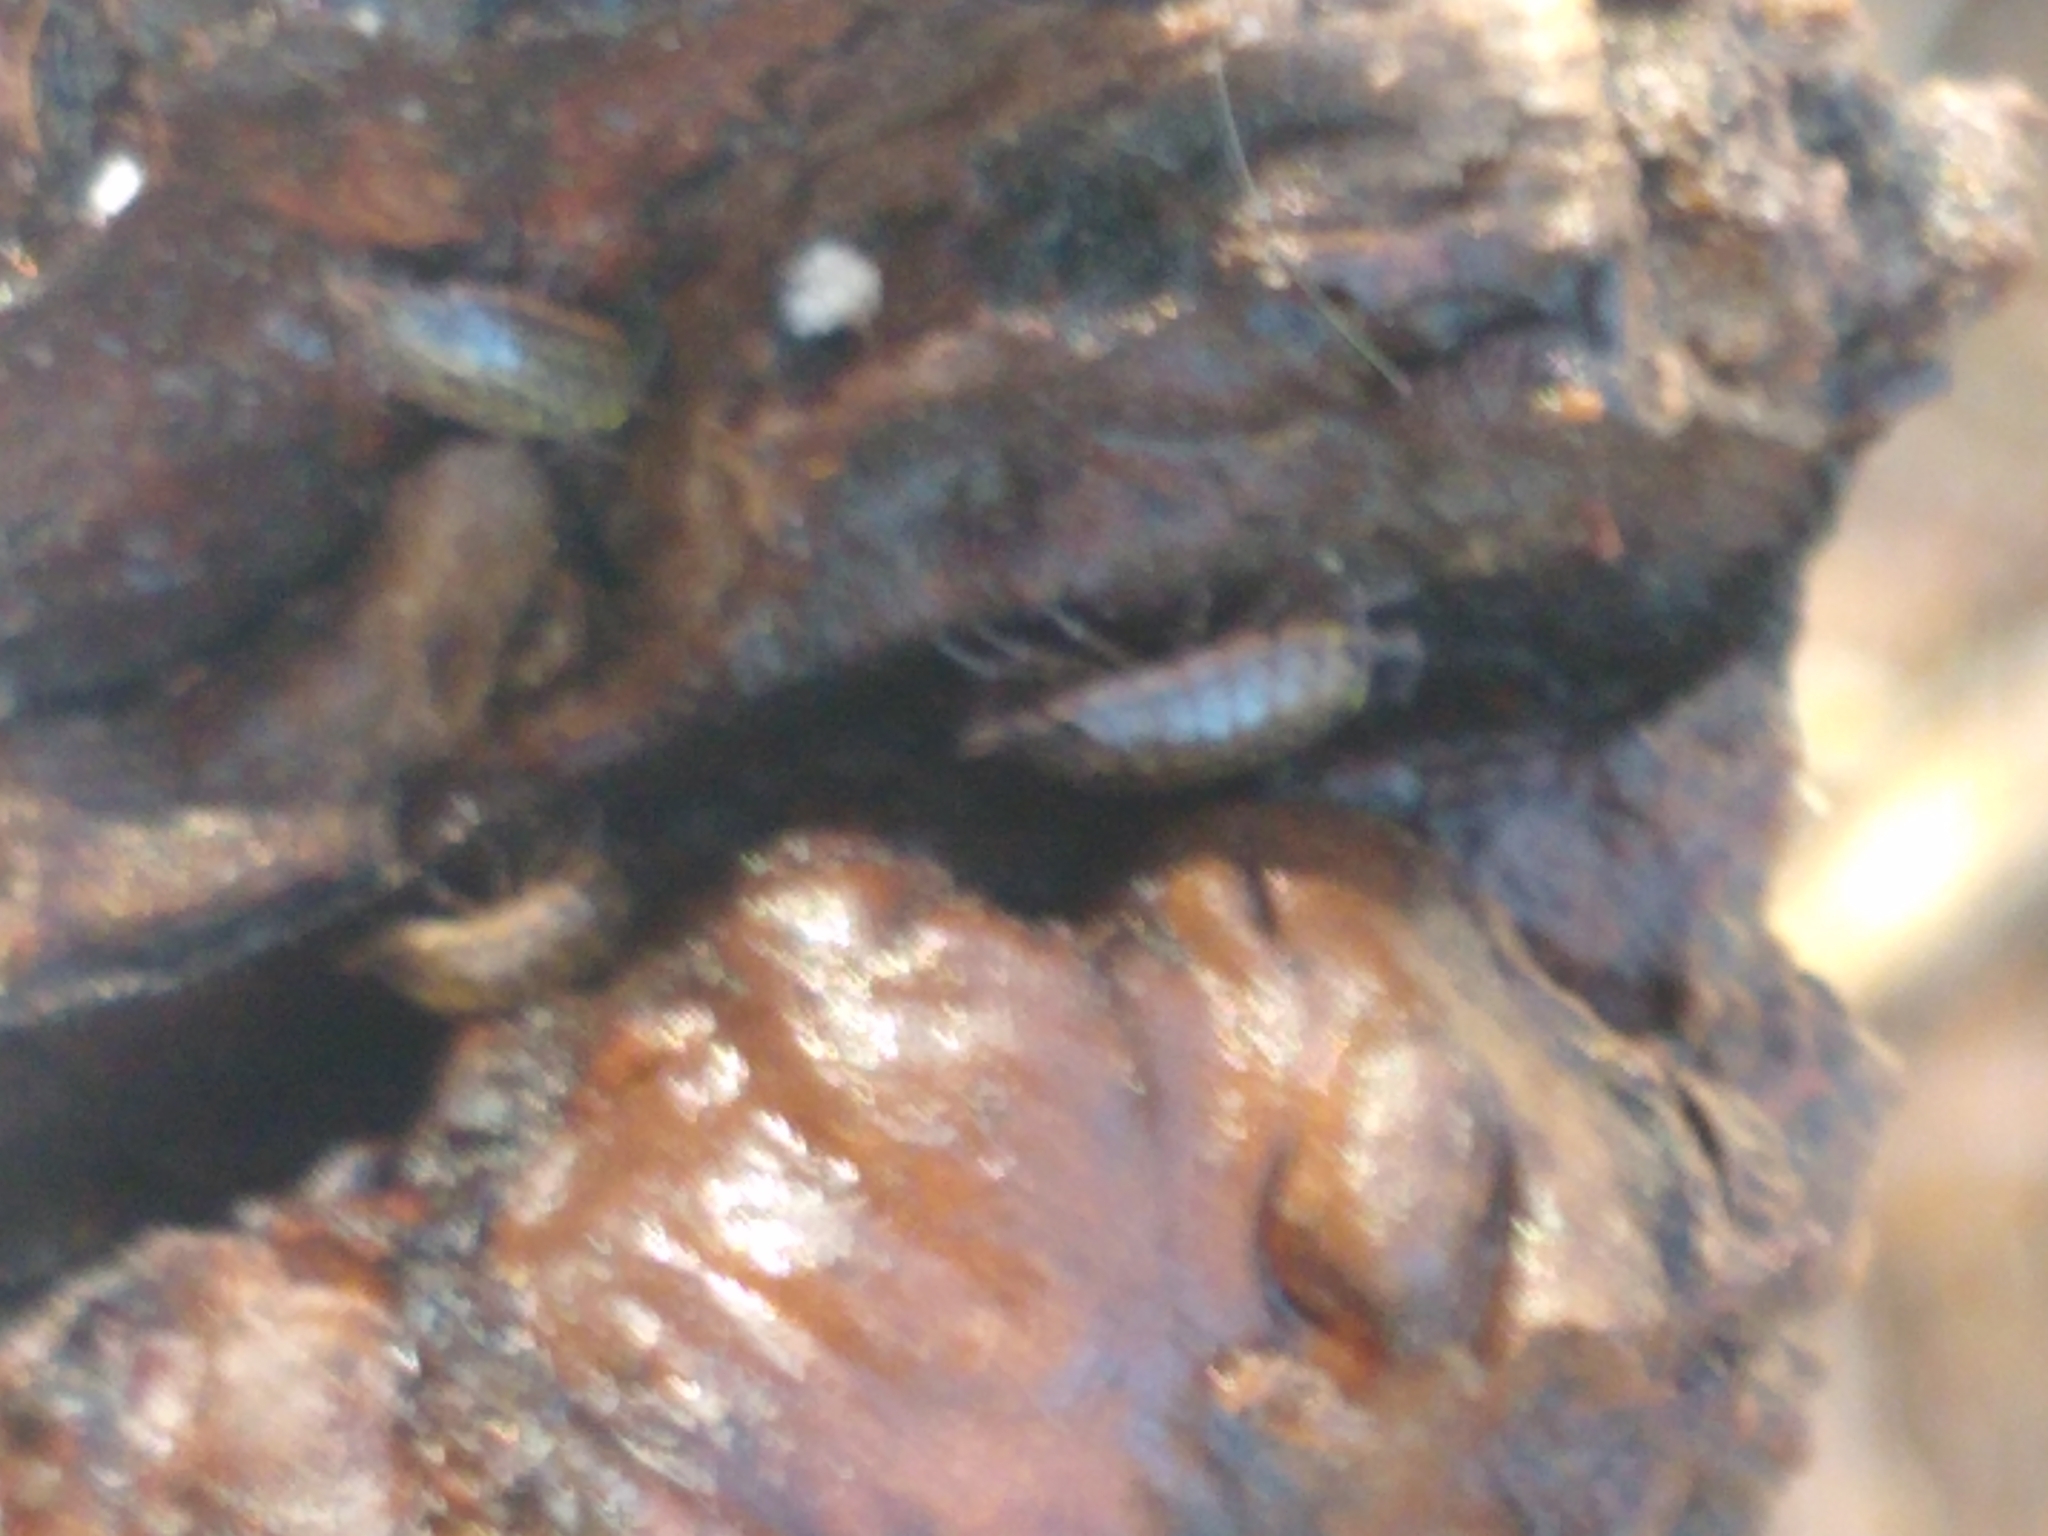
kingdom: Animalia
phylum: Arthropoda
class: Malacostraca
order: Isopoda
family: Philosciidae
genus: Philoscia
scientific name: Philoscia muscorum
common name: Common striped woodlouse
